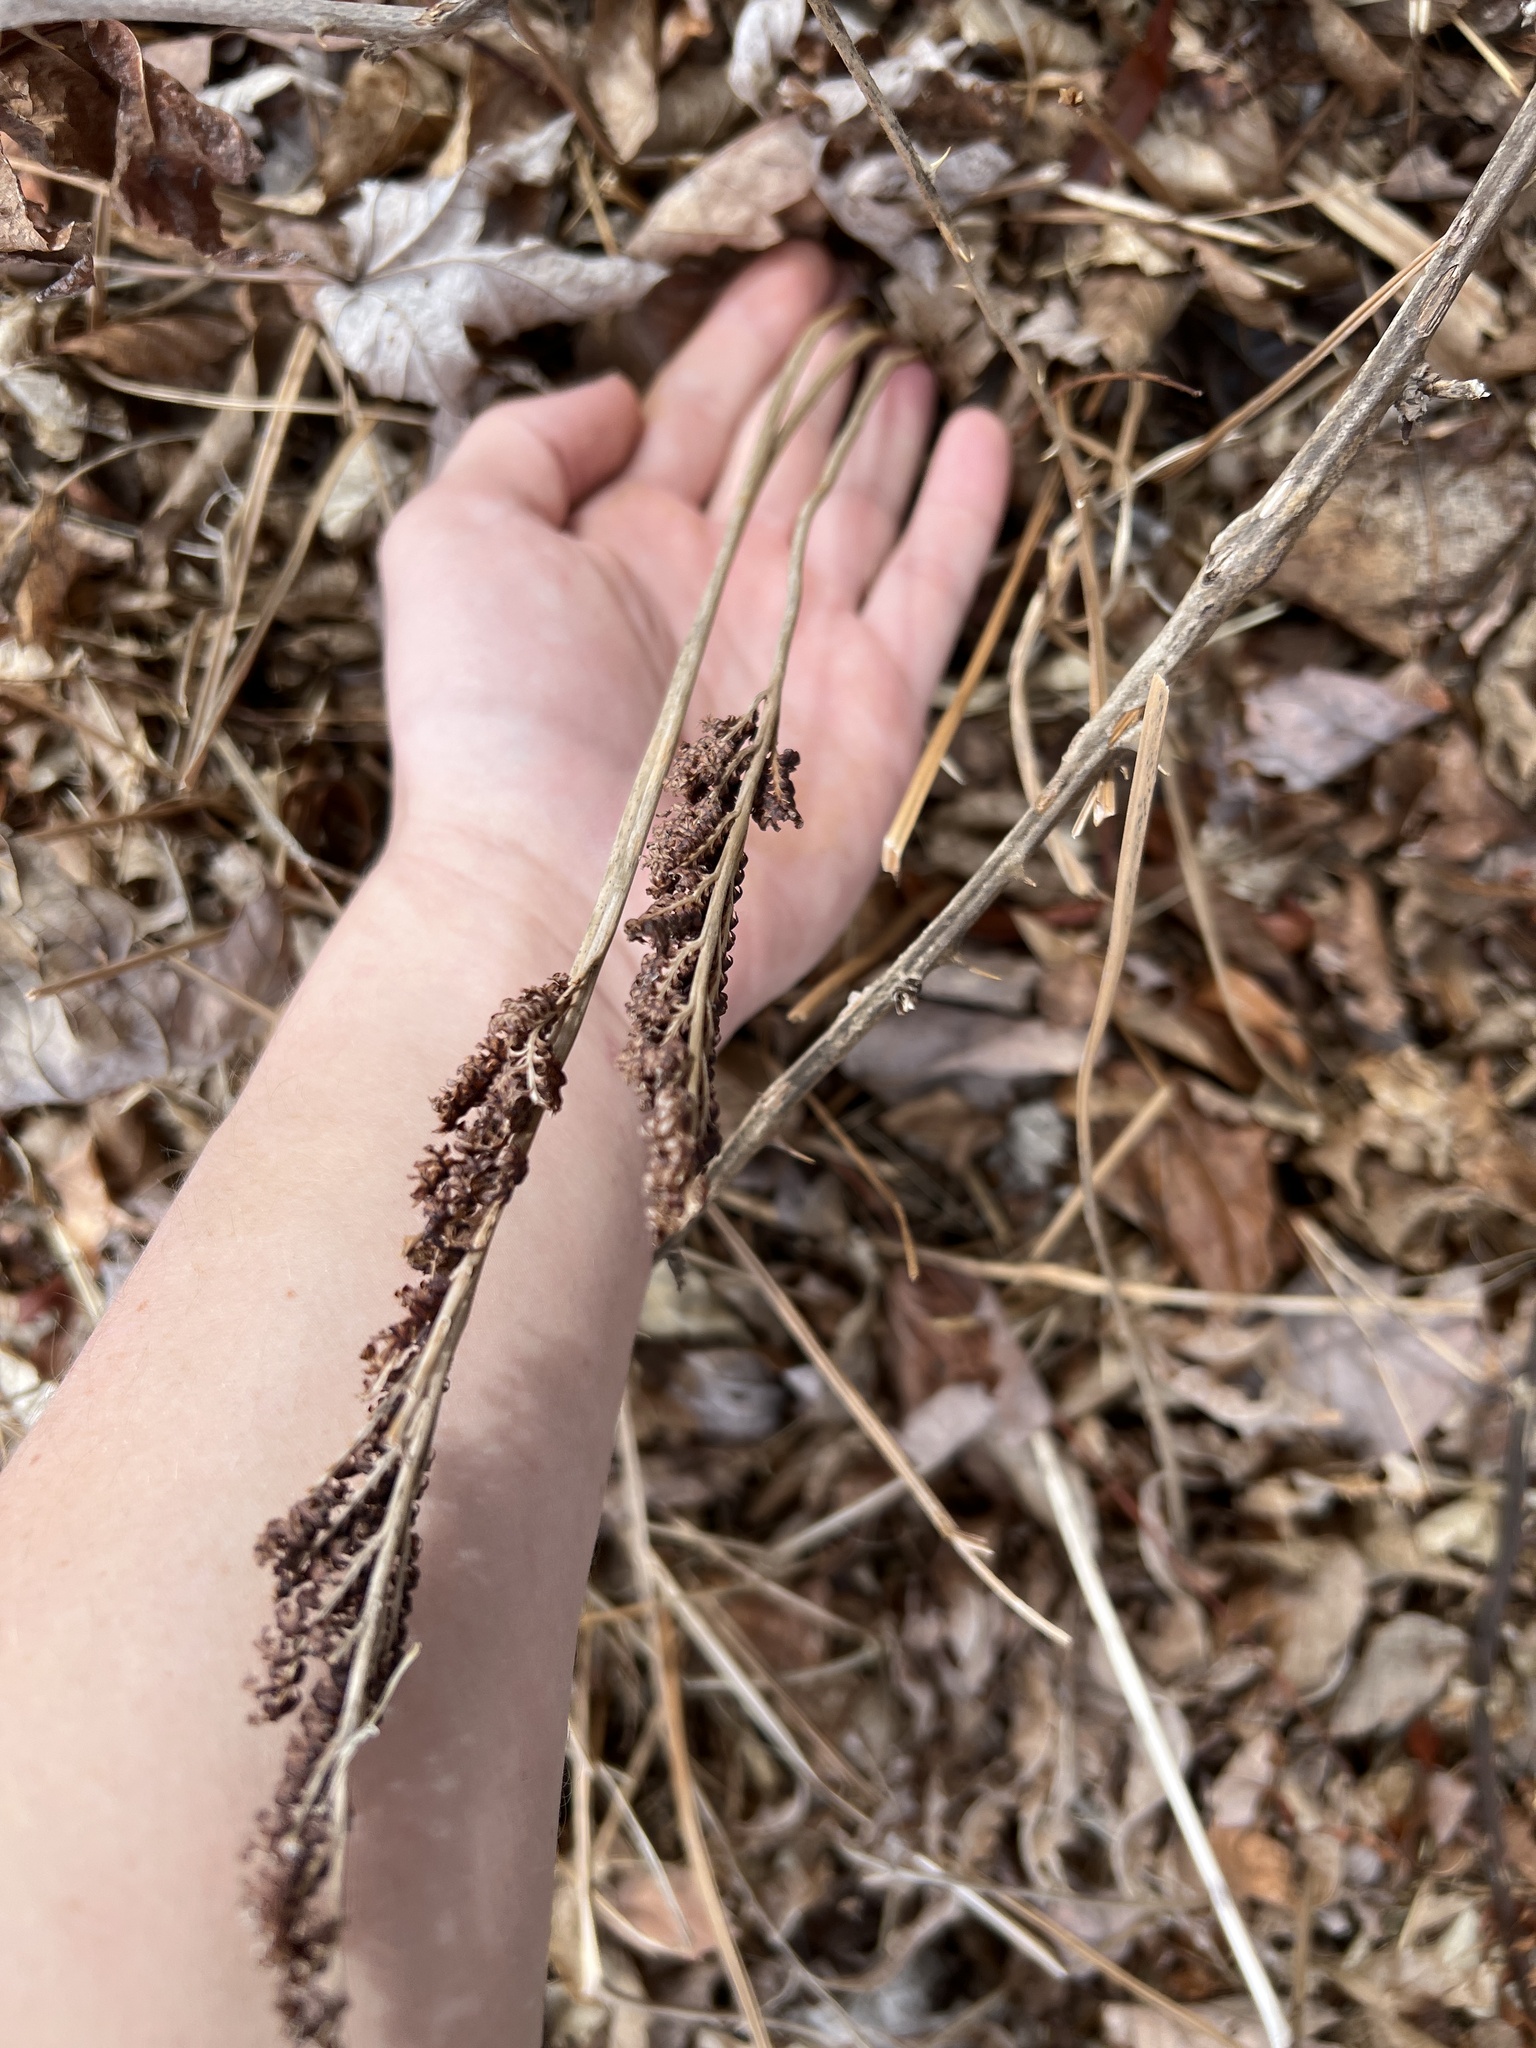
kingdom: Plantae
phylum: Tracheophyta
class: Polypodiopsida
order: Polypodiales
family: Onocleaceae
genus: Onoclea
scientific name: Onoclea sensibilis
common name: Sensitive fern
